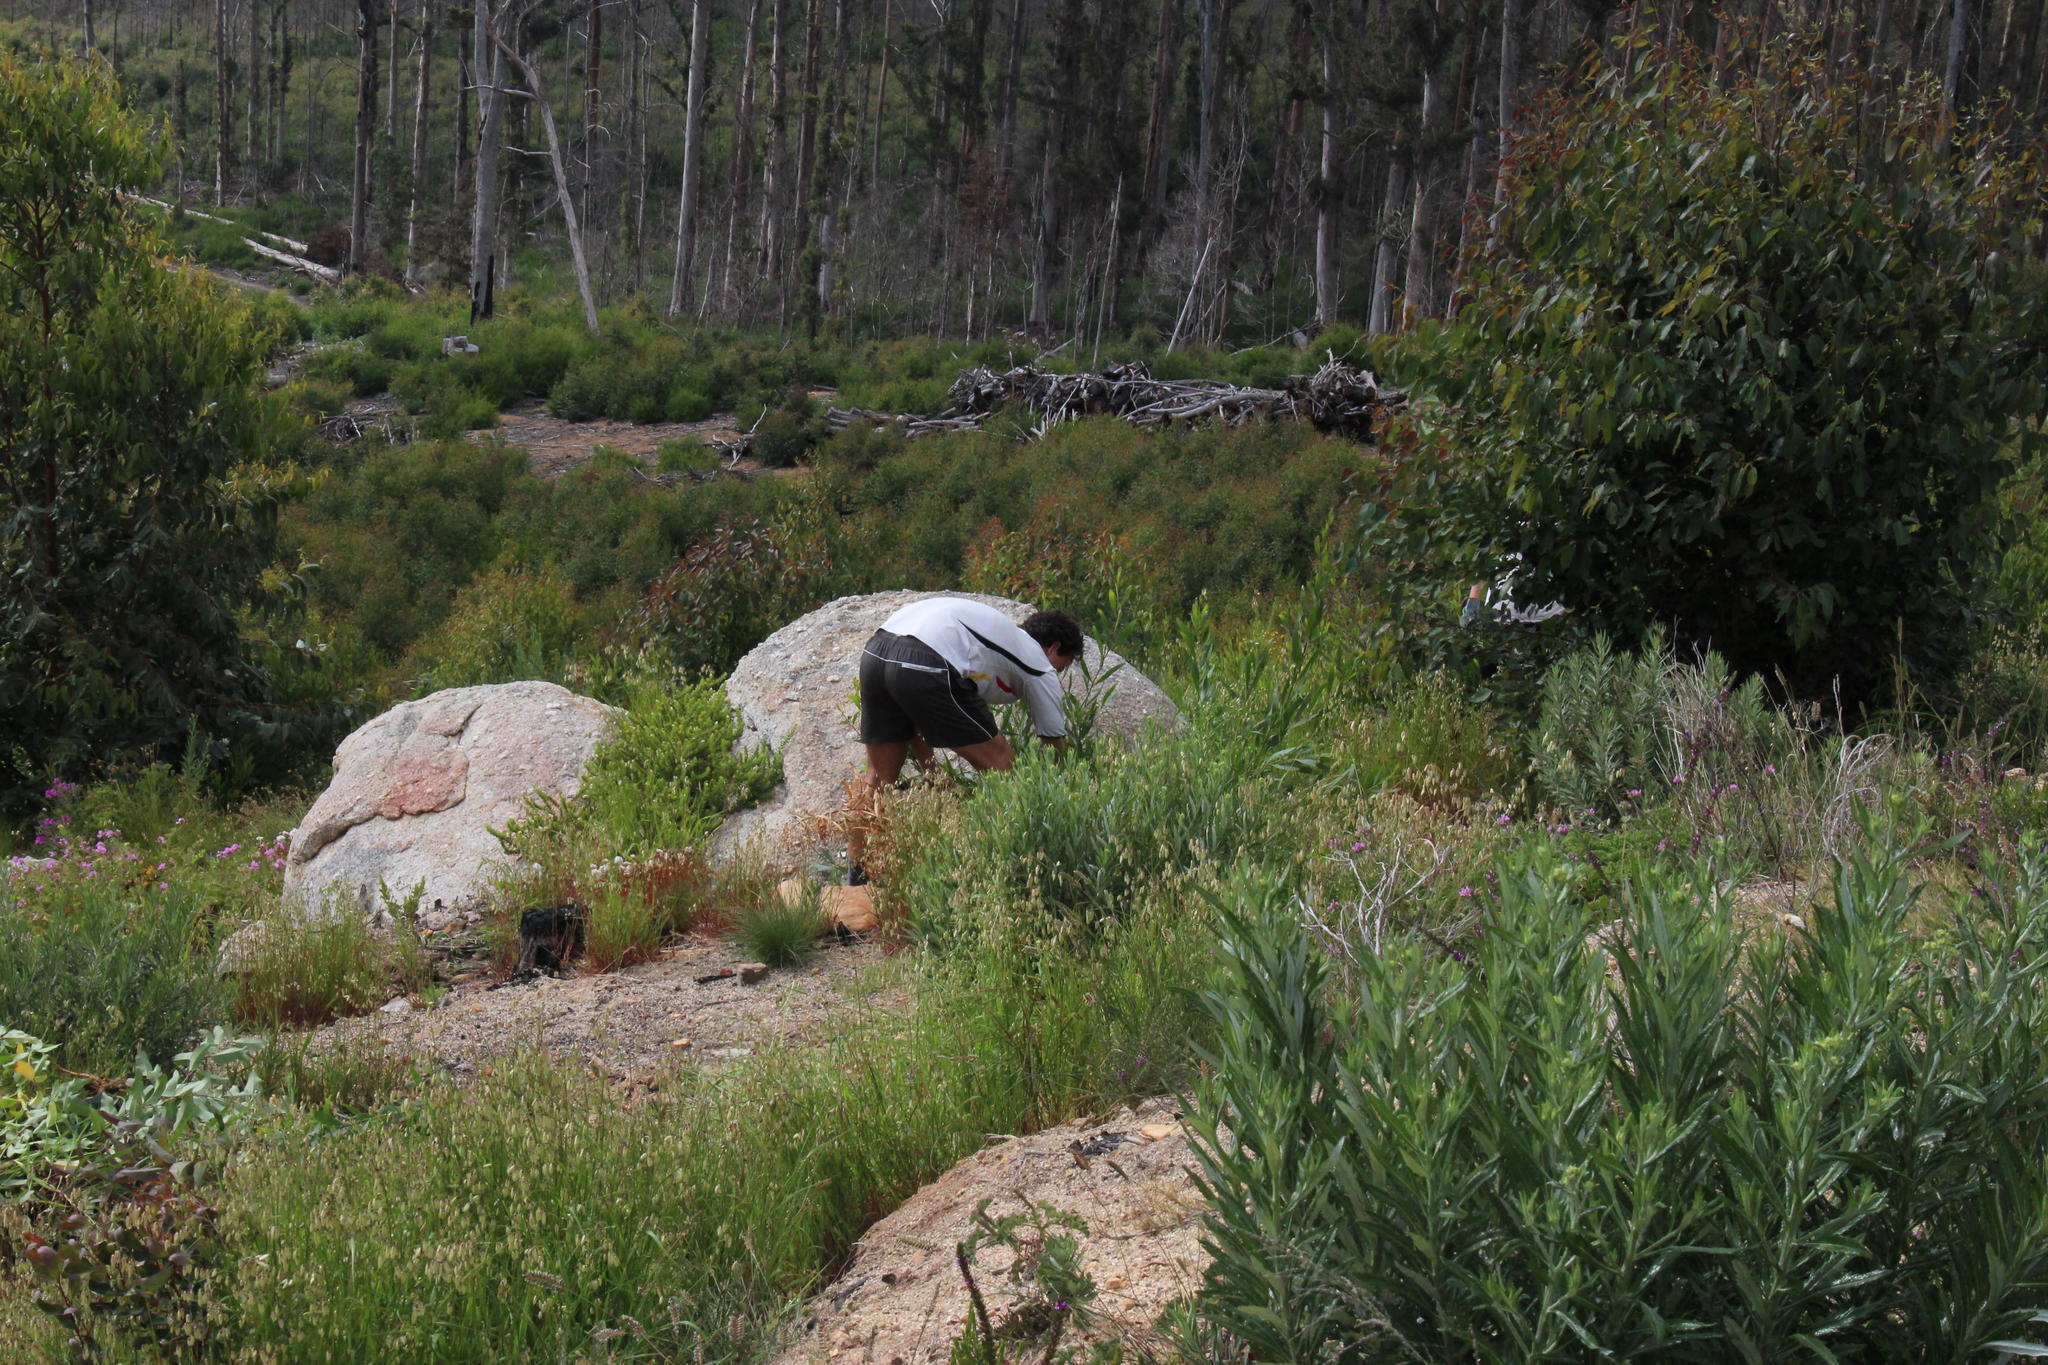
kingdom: Plantae
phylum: Tracheophyta
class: Liliopsida
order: Poales
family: Poaceae
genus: Briza
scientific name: Briza maxima
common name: Big quakinggrass
